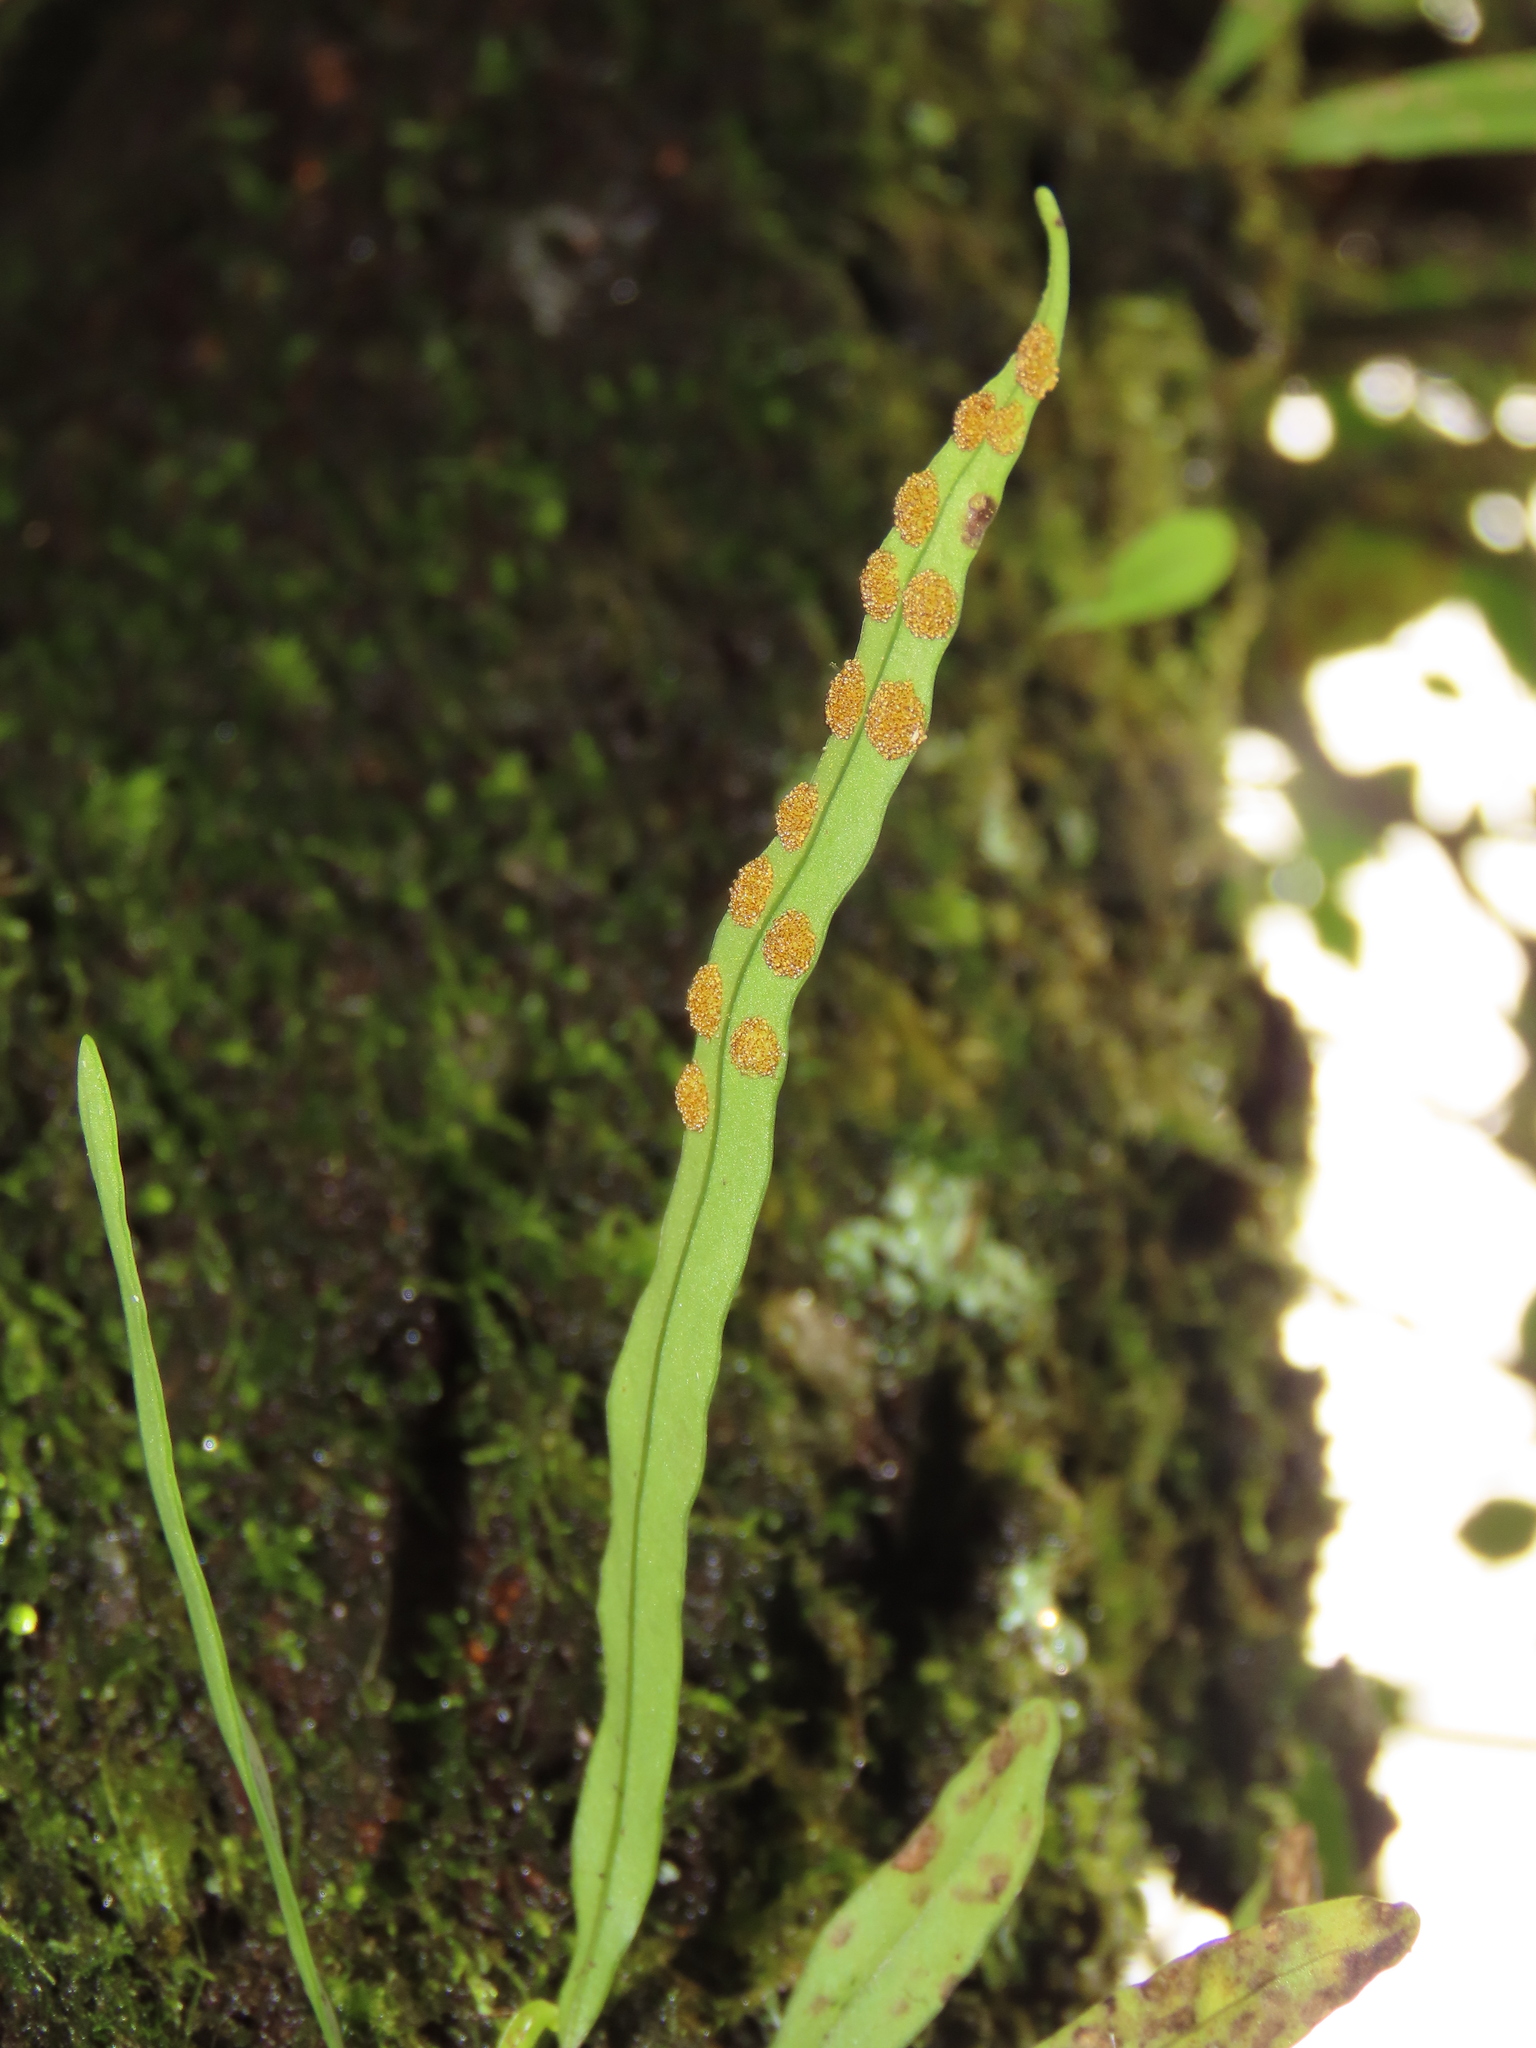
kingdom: Plantae
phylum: Tracheophyta
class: Polypodiopsida
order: Polypodiales
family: Polypodiaceae
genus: Lepisorus
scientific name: Lepisorus thunbergianus
